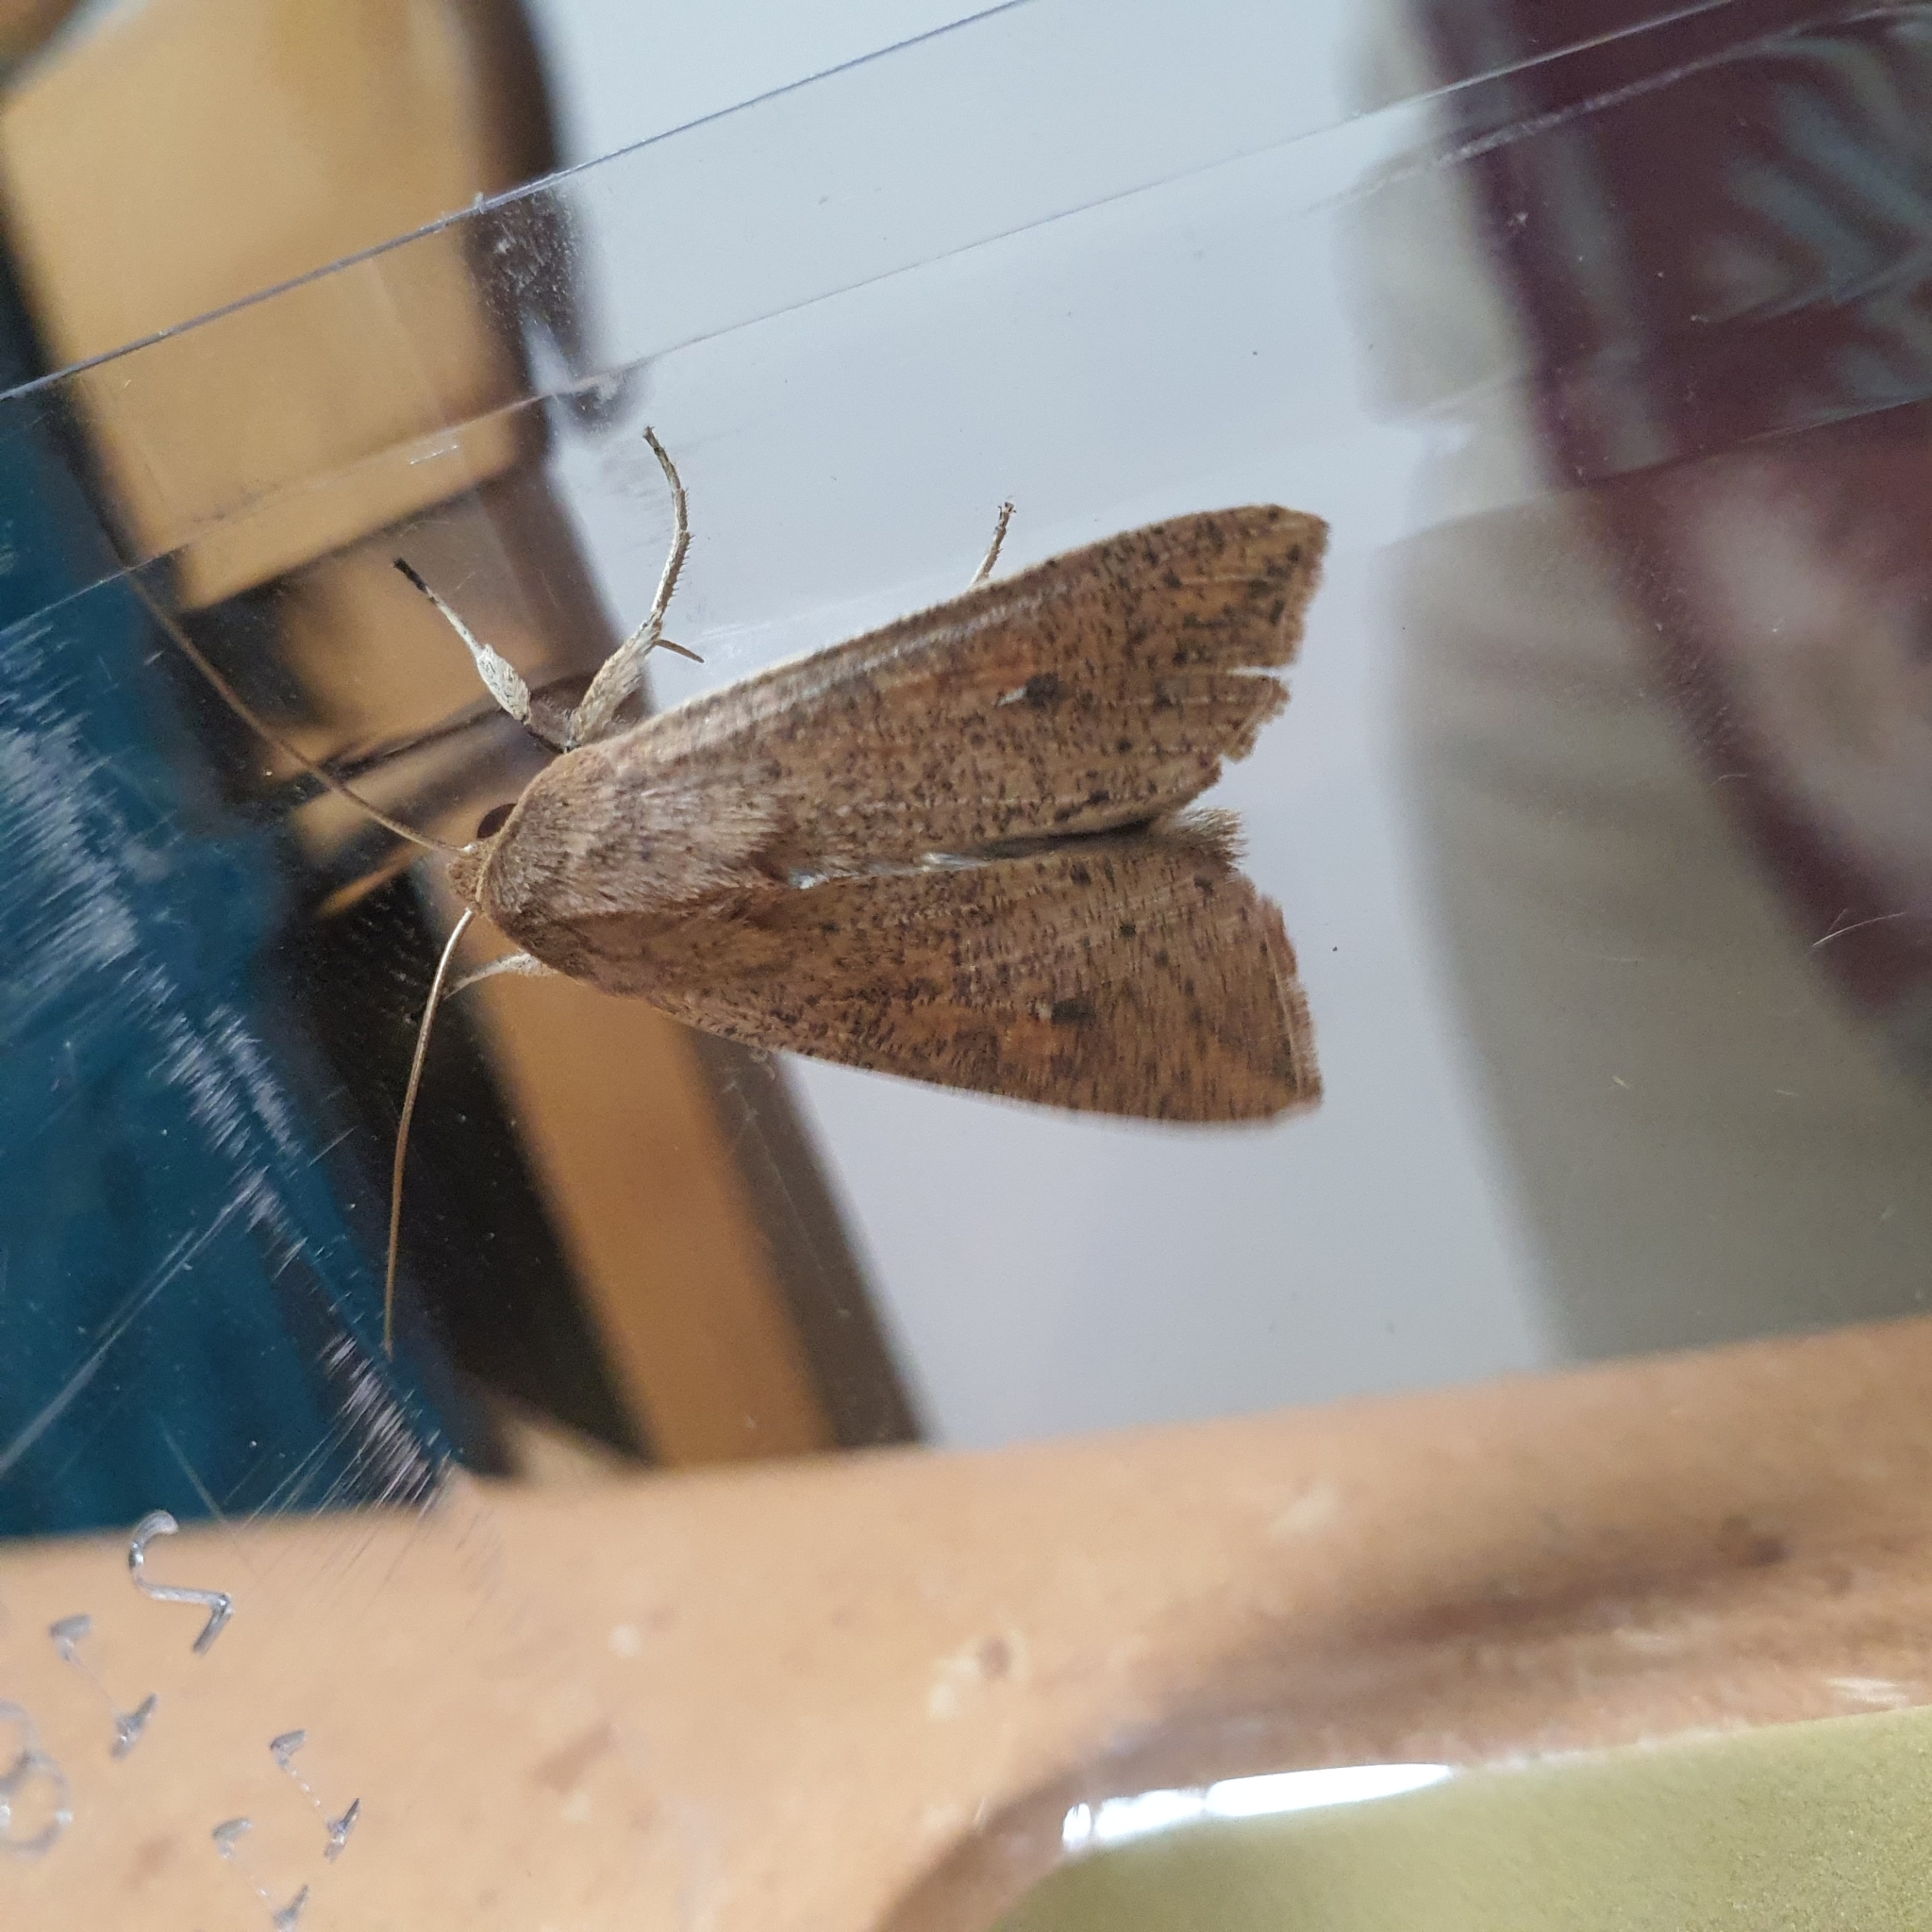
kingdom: Animalia
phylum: Arthropoda
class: Insecta
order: Lepidoptera
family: Noctuidae
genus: Mythimna
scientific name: Mythimna convecta
